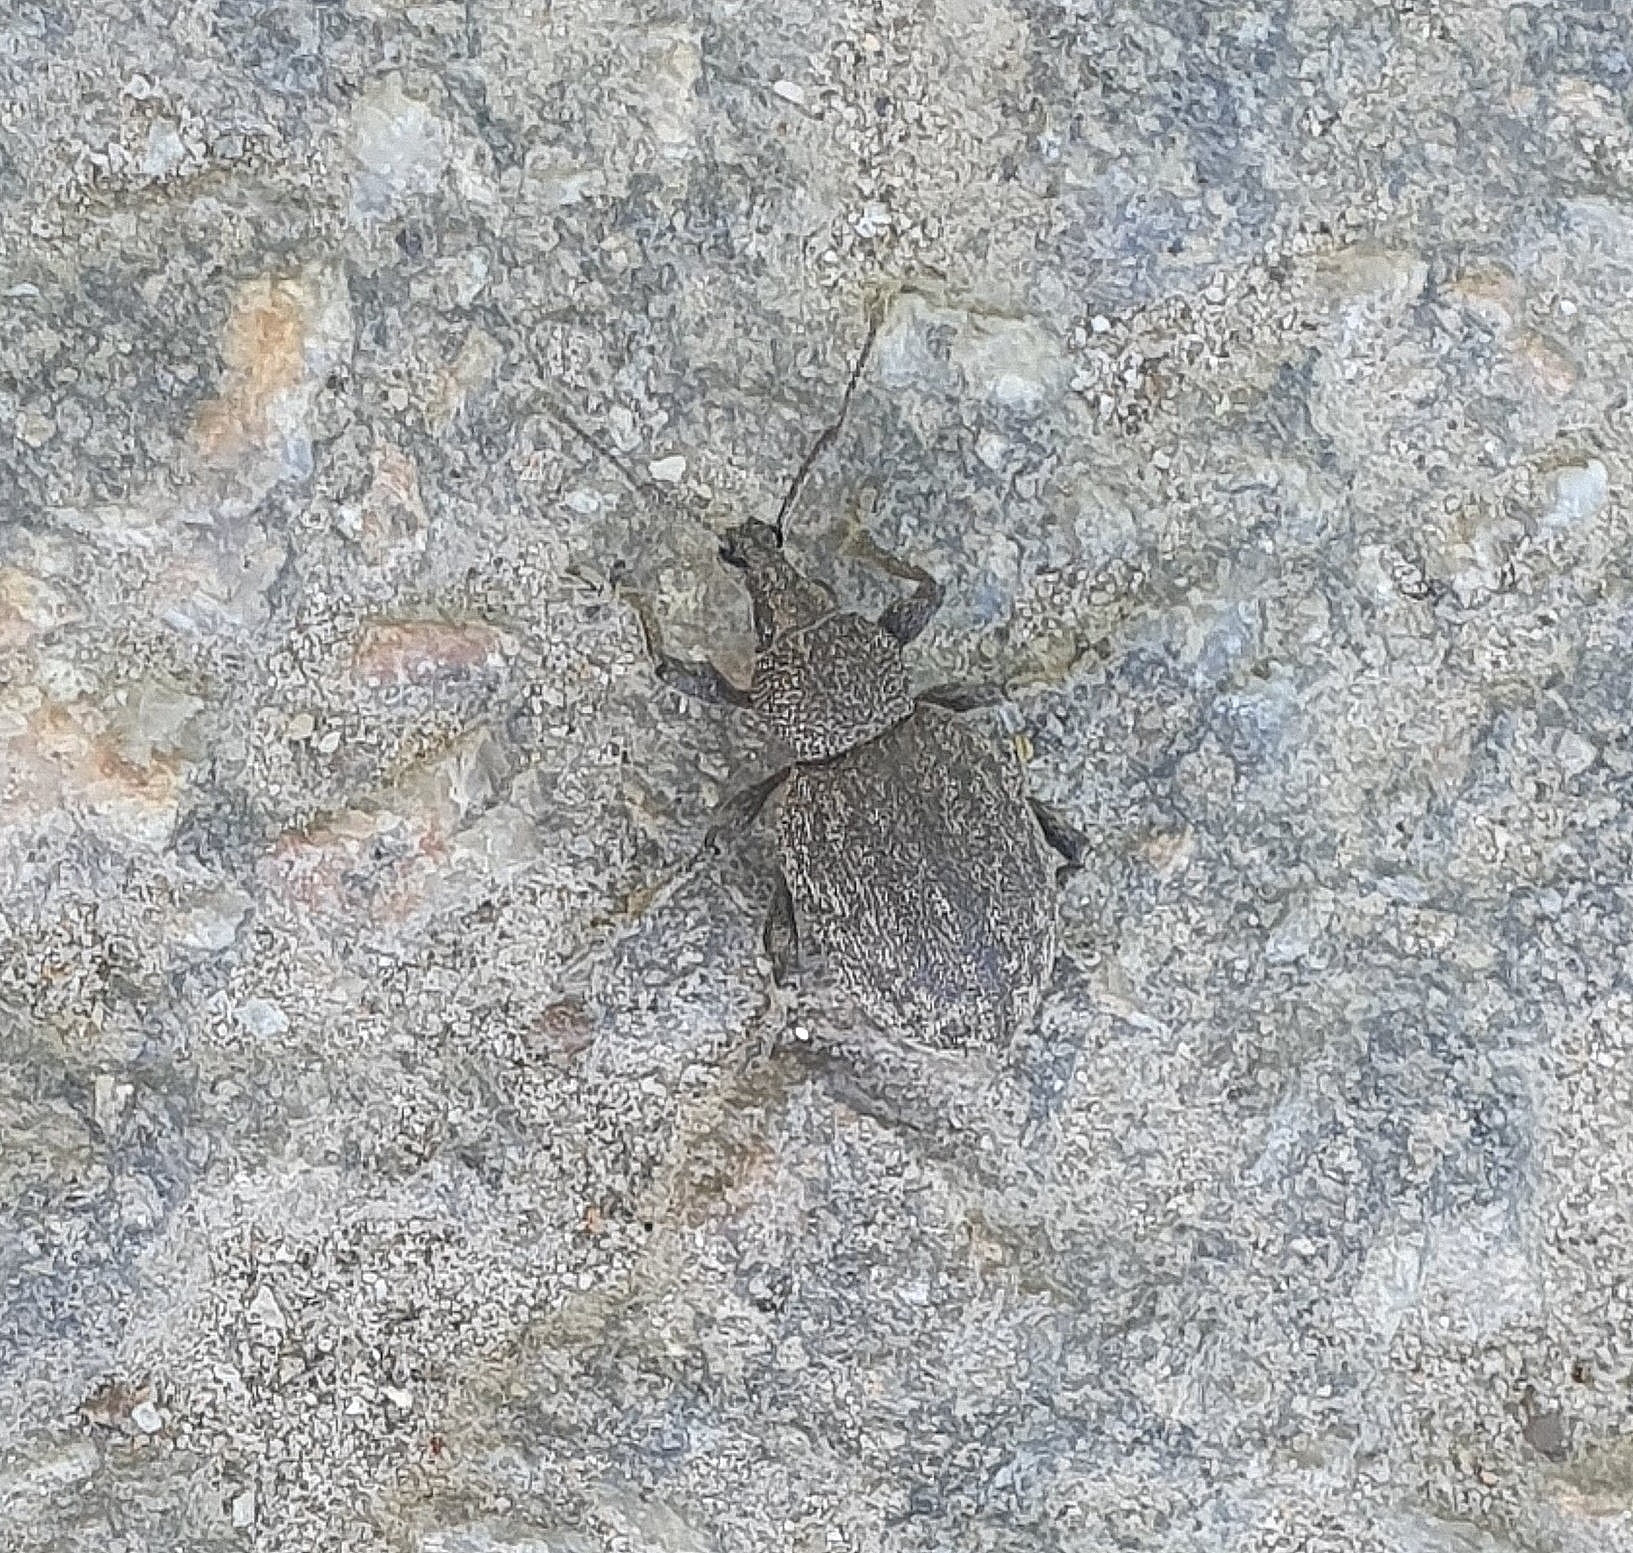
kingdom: Animalia
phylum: Arthropoda
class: Insecta
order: Coleoptera
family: Curculionidae
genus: Otiorhynchus
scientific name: Otiorhynchus ligustici
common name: Weevil
